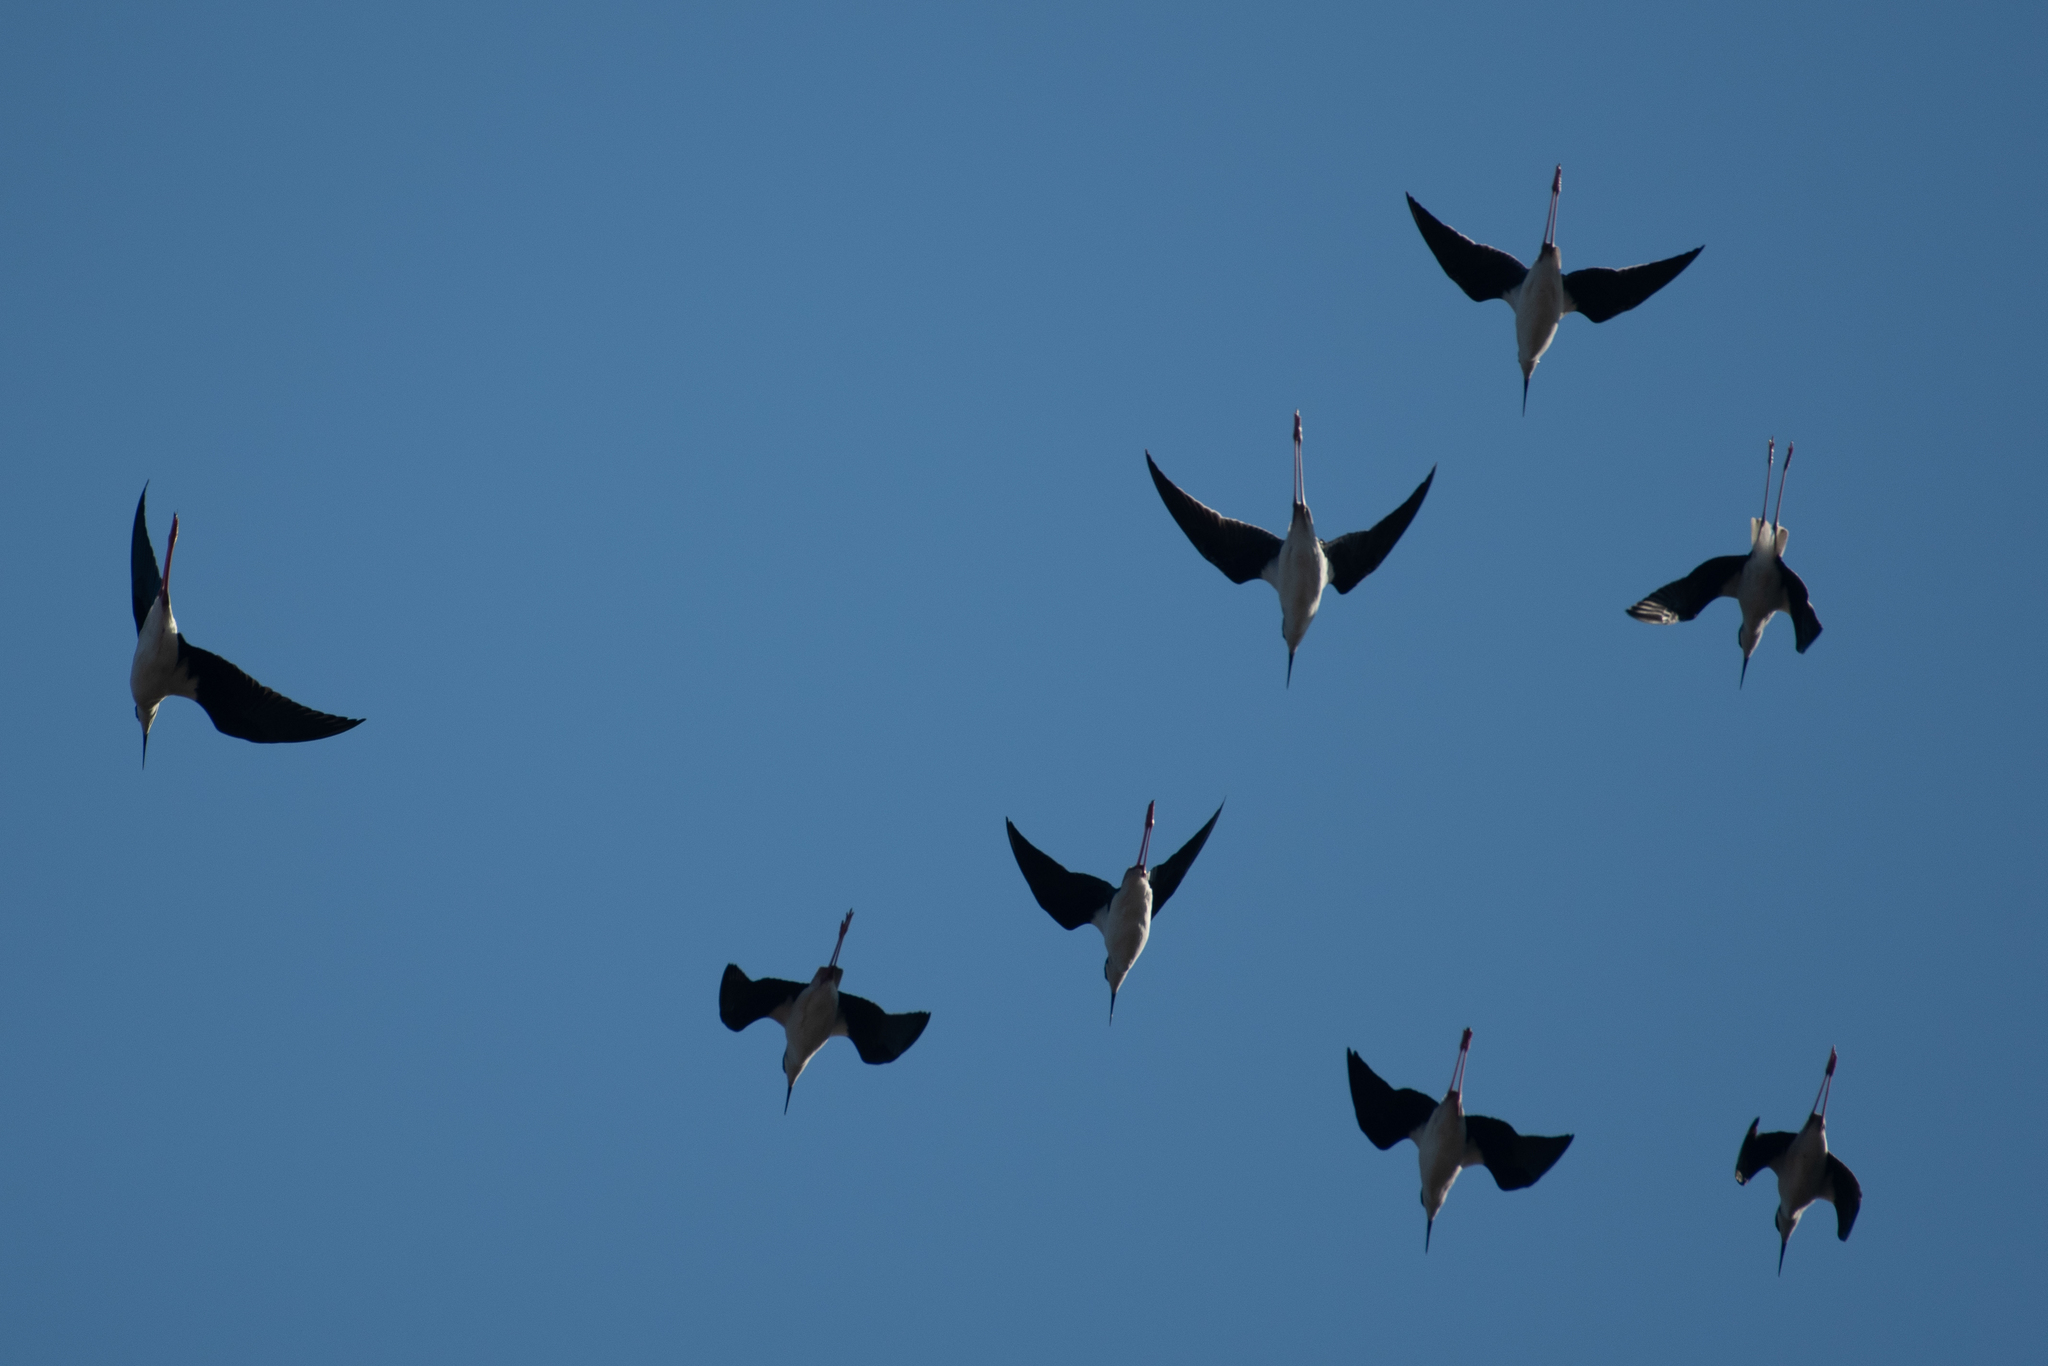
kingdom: Animalia
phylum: Chordata
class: Aves
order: Charadriiformes
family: Recurvirostridae
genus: Himantopus
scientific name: Himantopus mexicanus
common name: Black-necked stilt
